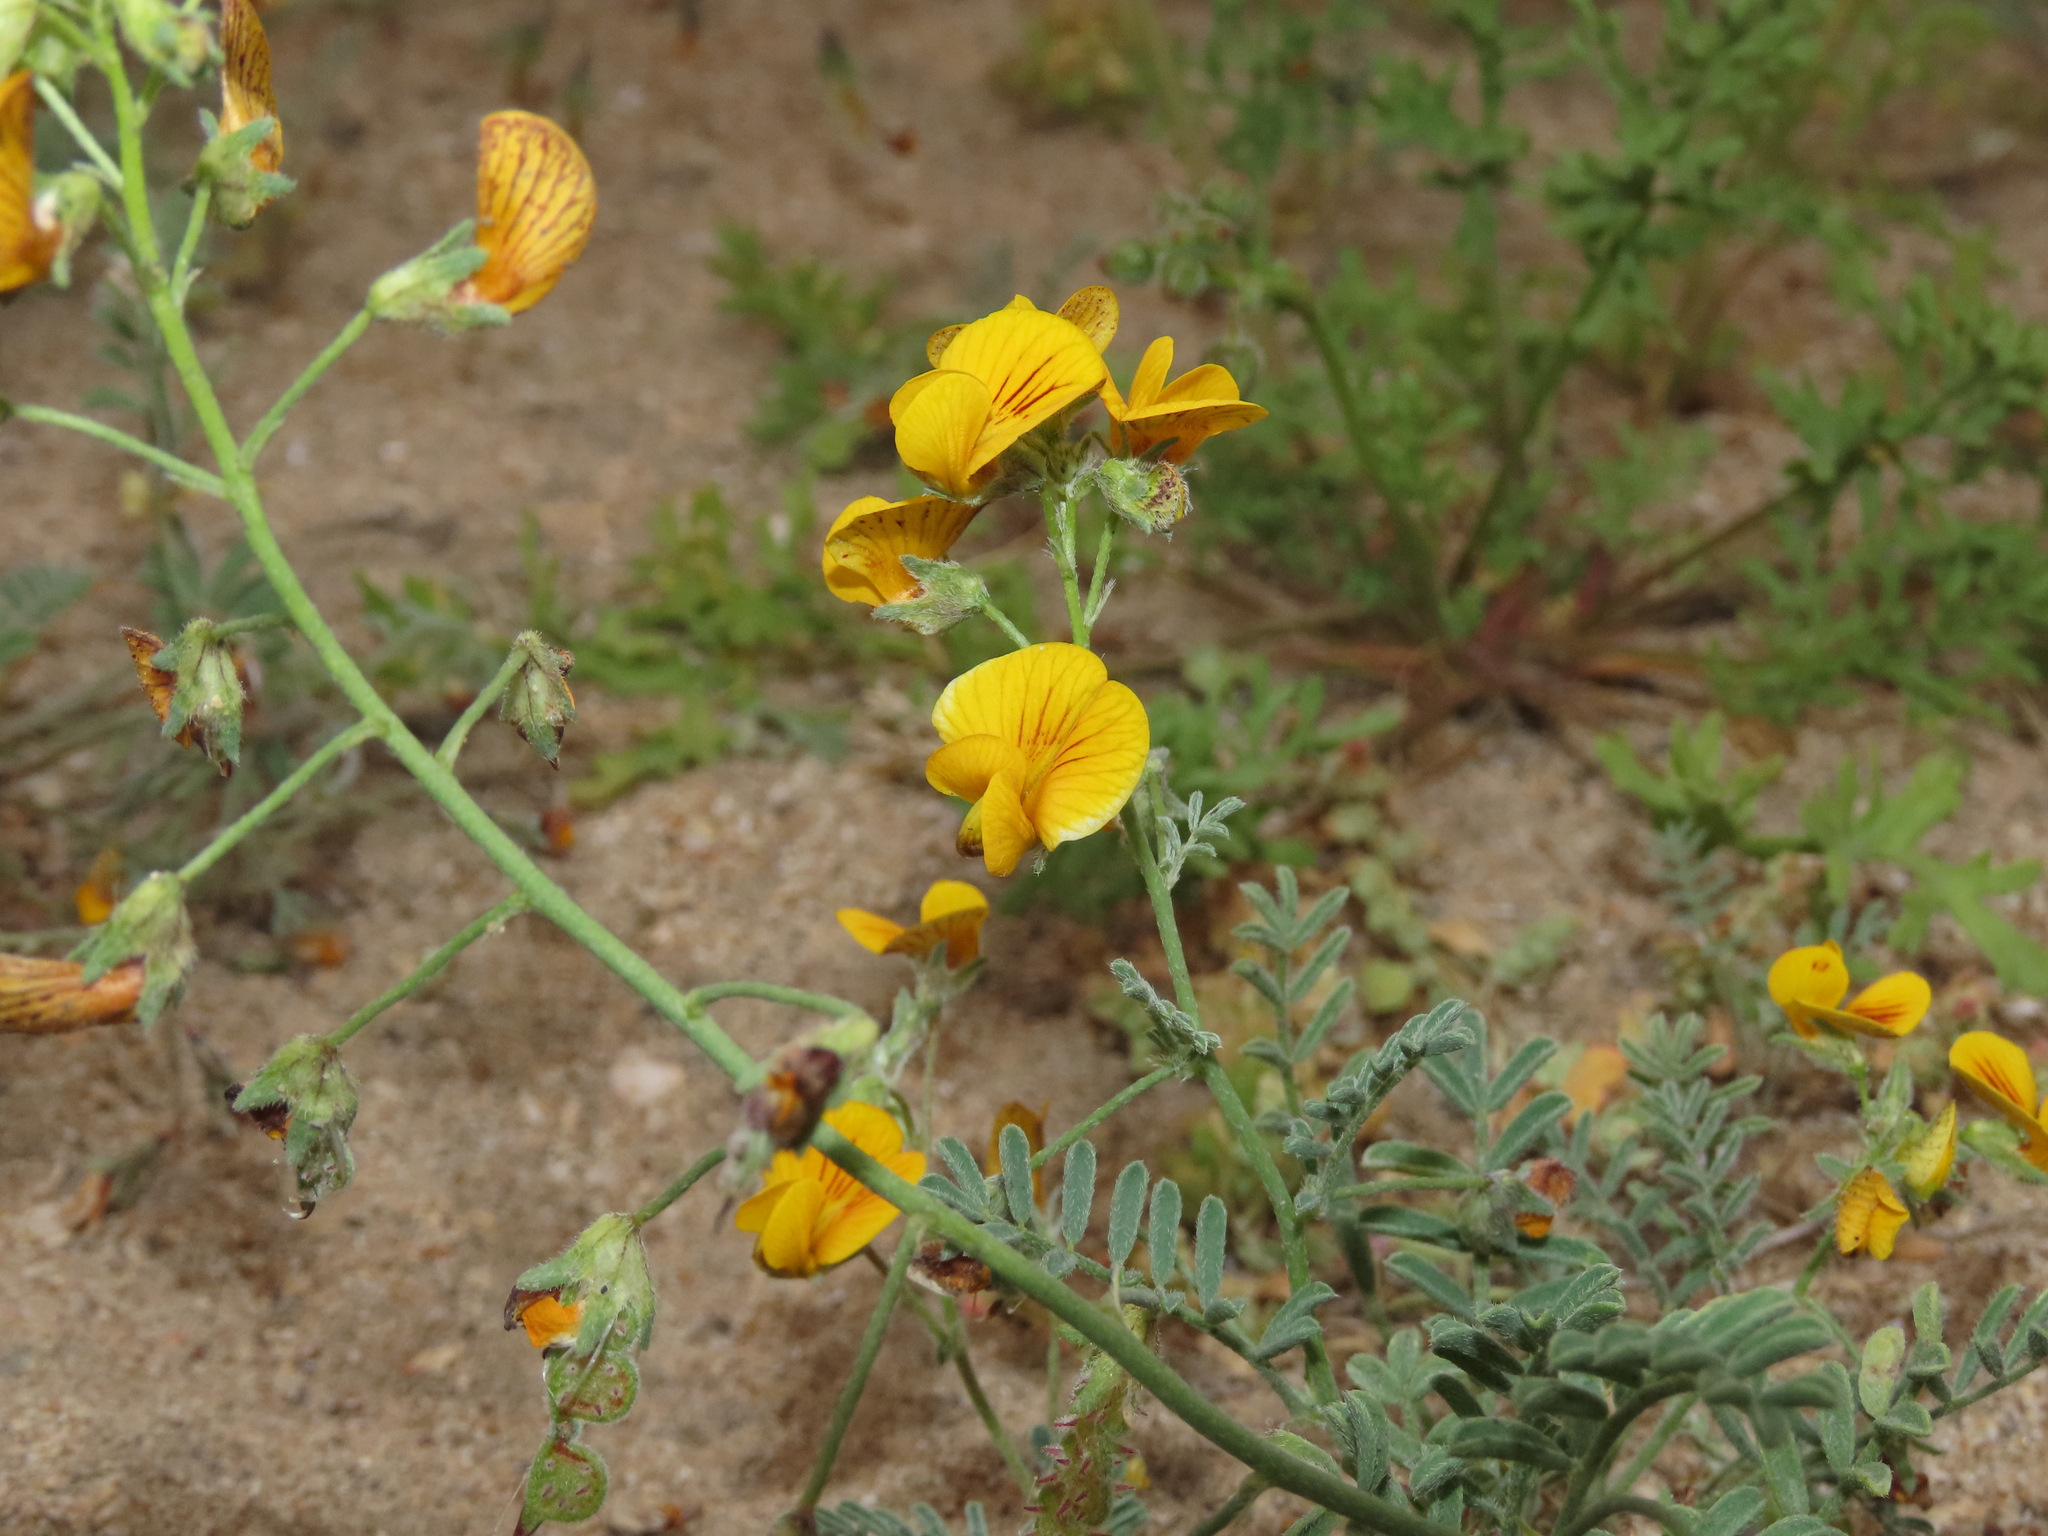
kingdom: Plantae
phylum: Tracheophyta
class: Magnoliopsida
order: Fabales
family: Fabaceae
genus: Adesmia
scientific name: Adesmia tenella
